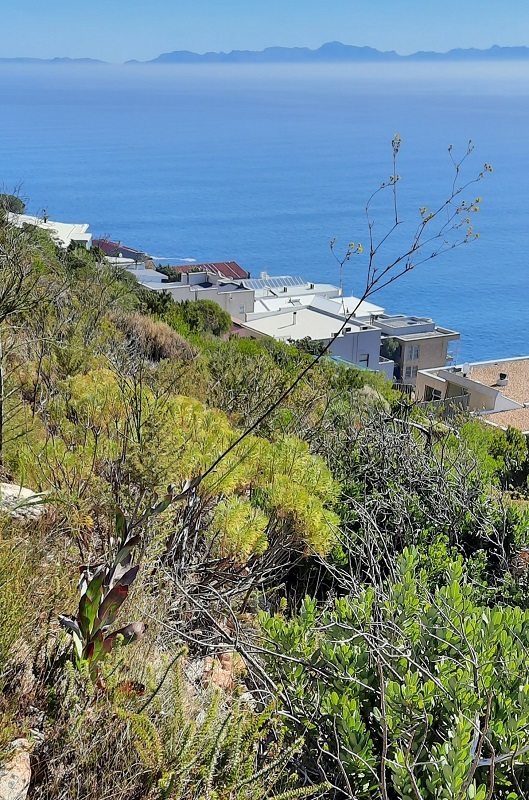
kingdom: Plantae
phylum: Tracheophyta
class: Magnoliopsida
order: Asterales
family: Asteraceae
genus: Othonna
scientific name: Othonna quinquedentata
